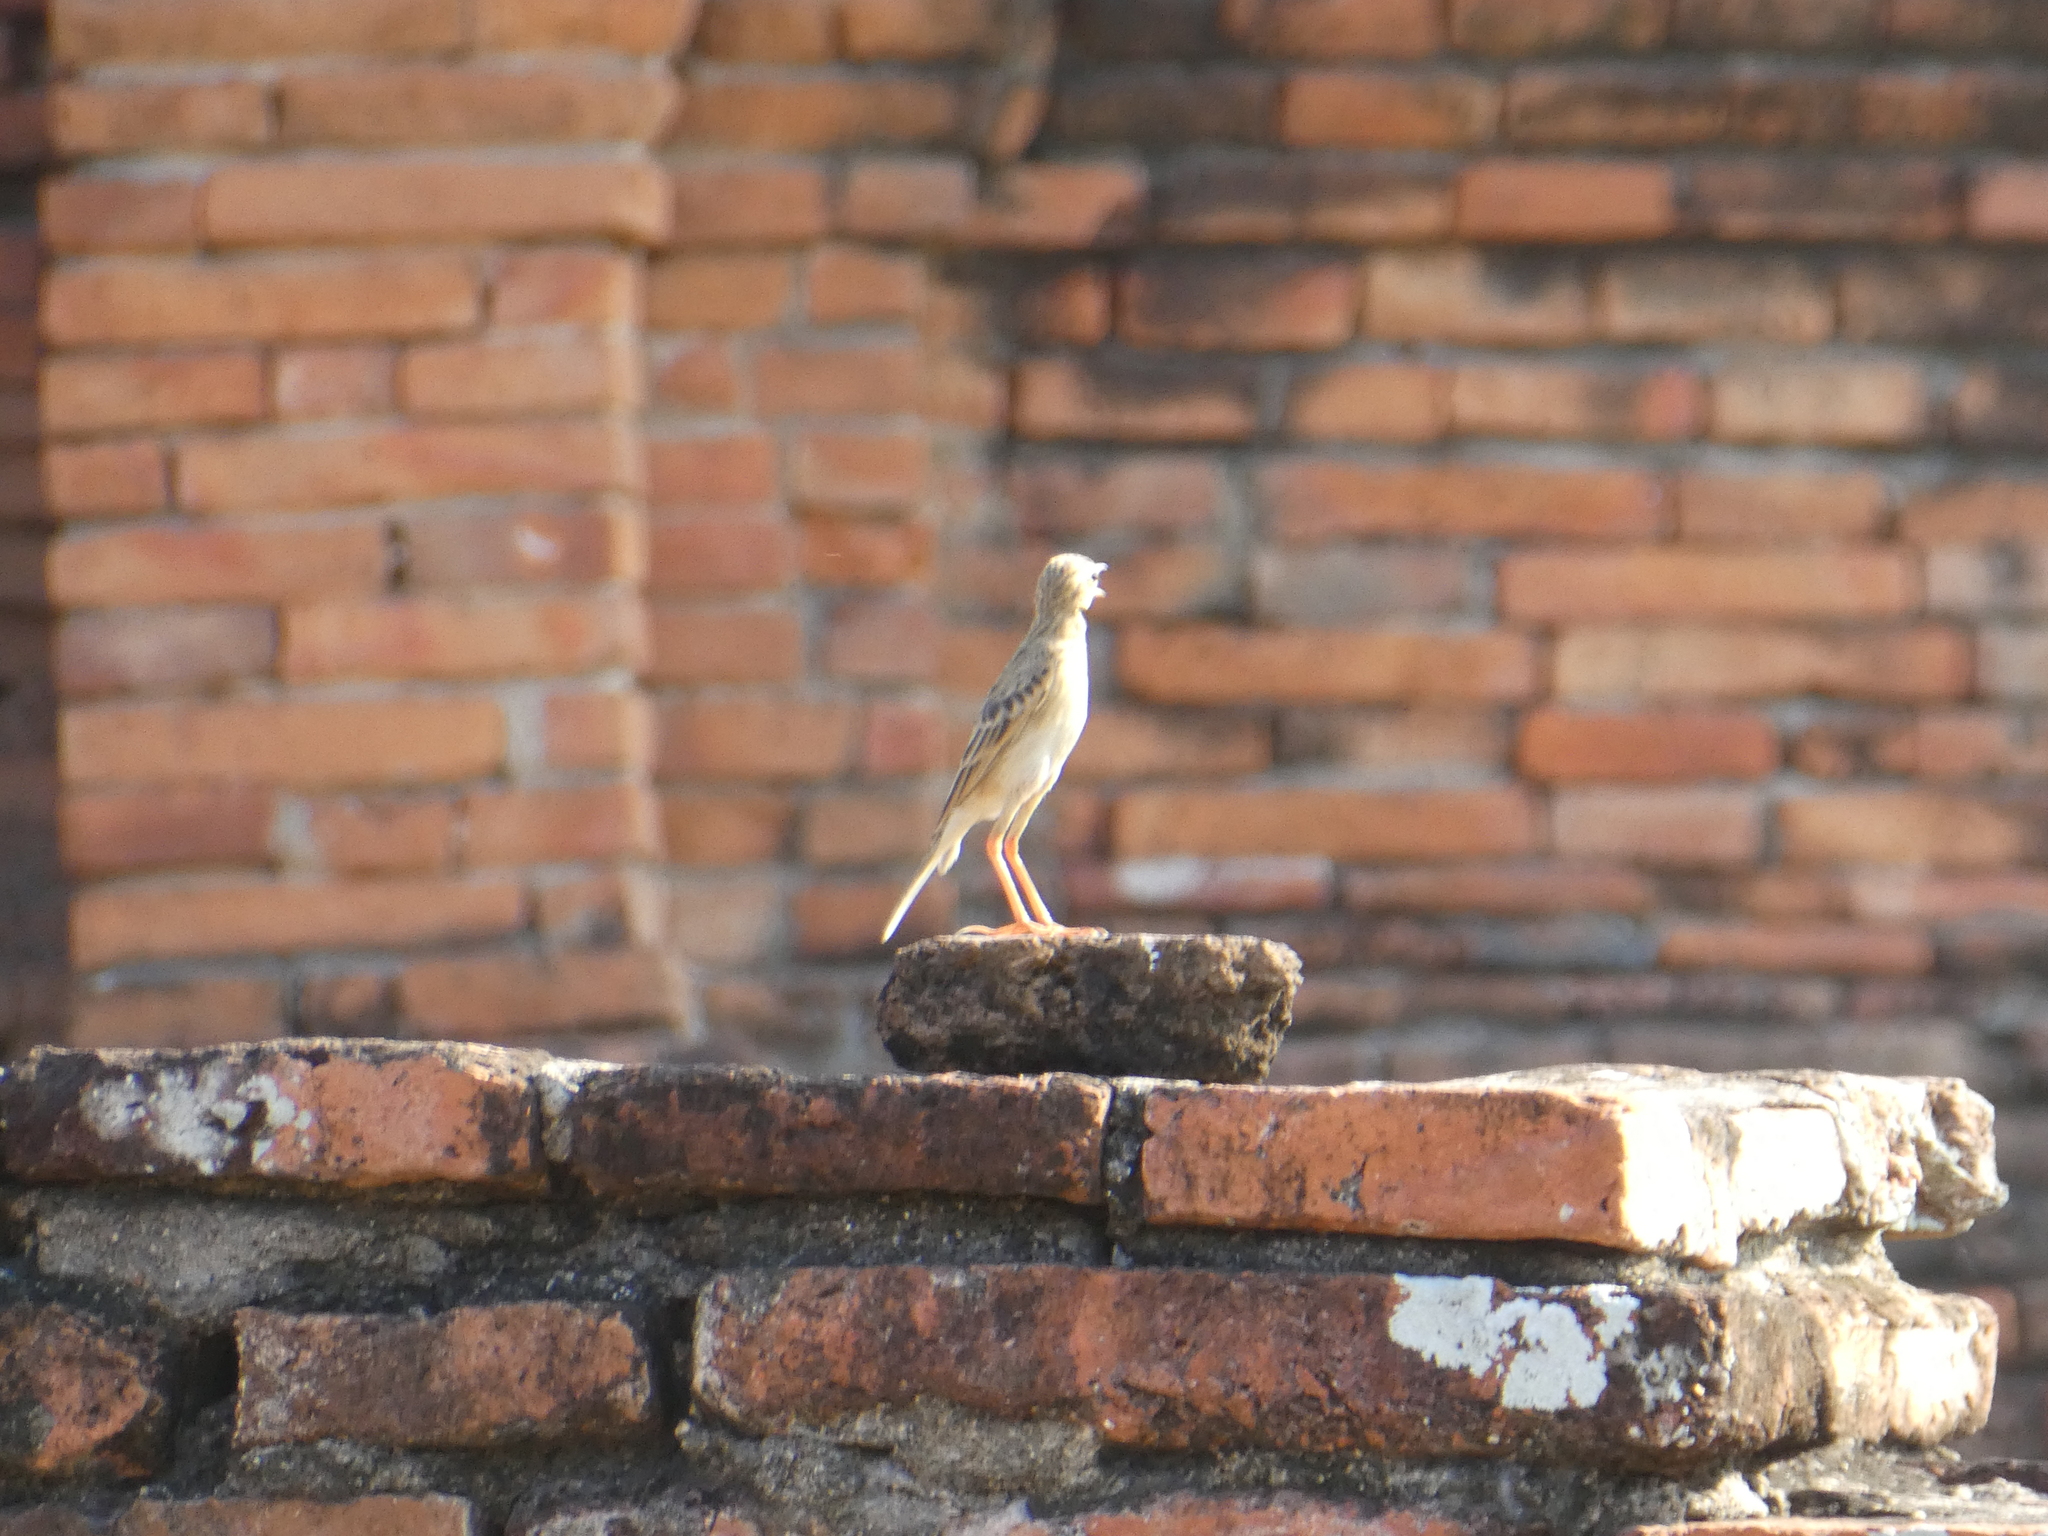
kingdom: Animalia
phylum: Chordata
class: Aves
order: Passeriformes
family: Motacillidae
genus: Anthus
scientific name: Anthus rufulus
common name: Paddyfield pipit
